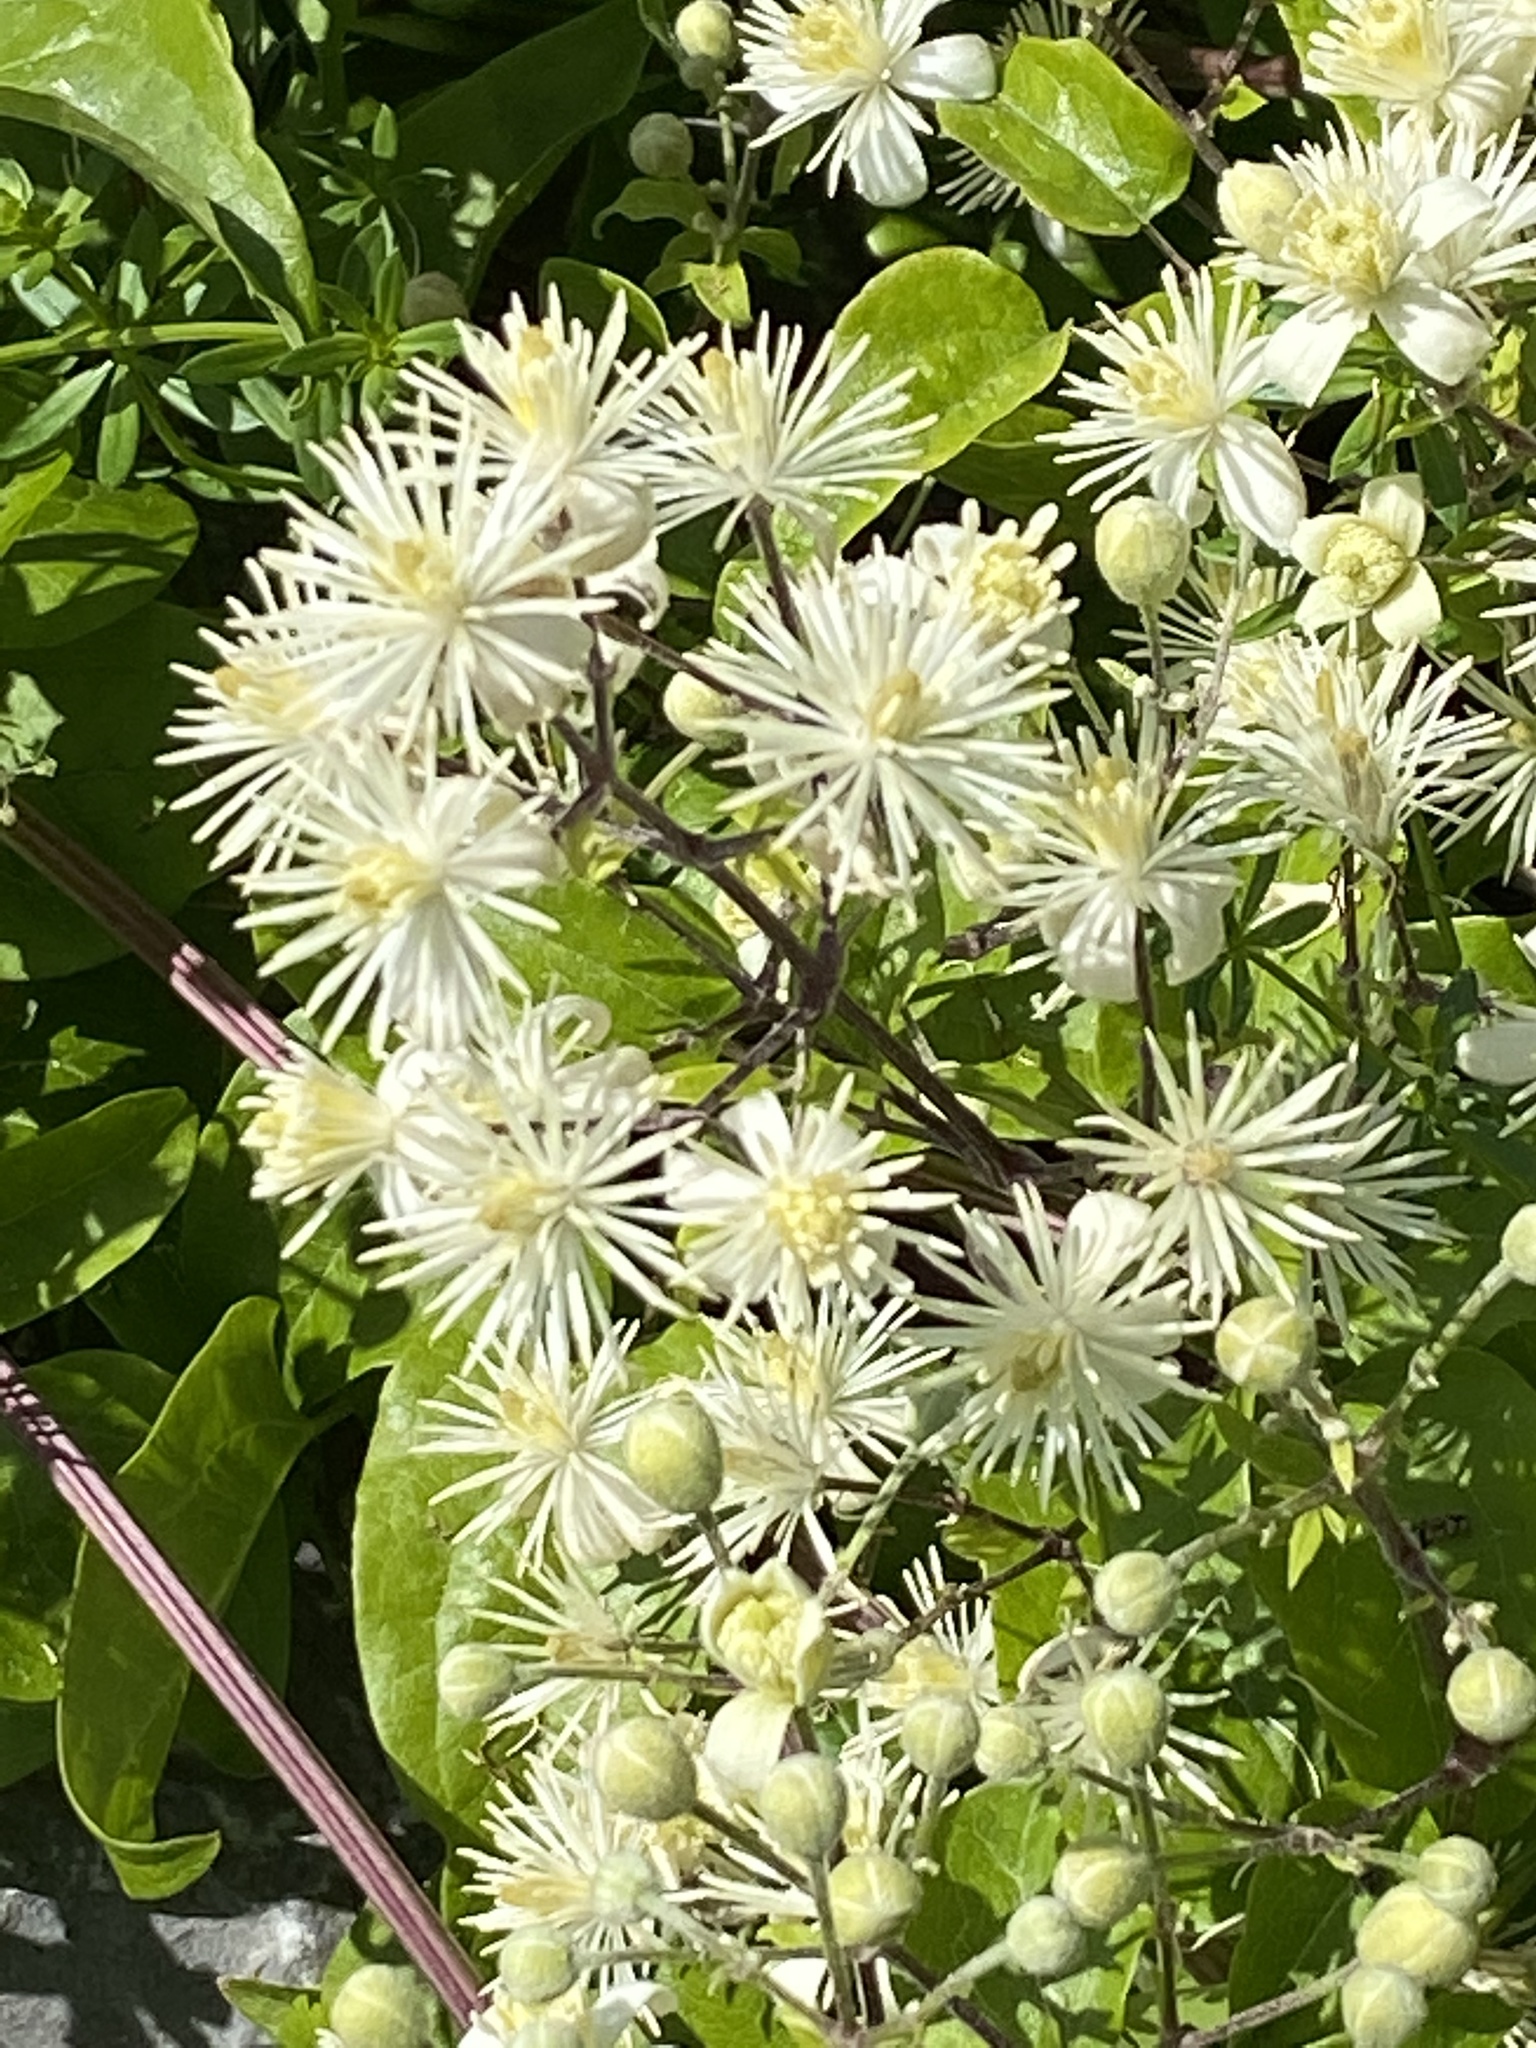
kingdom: Plantae
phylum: Tracheophyta
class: Magnoliopsida
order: Ranunculales
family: Ranunculaceae
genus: Clematis
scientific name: Clematis vitalba
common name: Evergreen clematis
